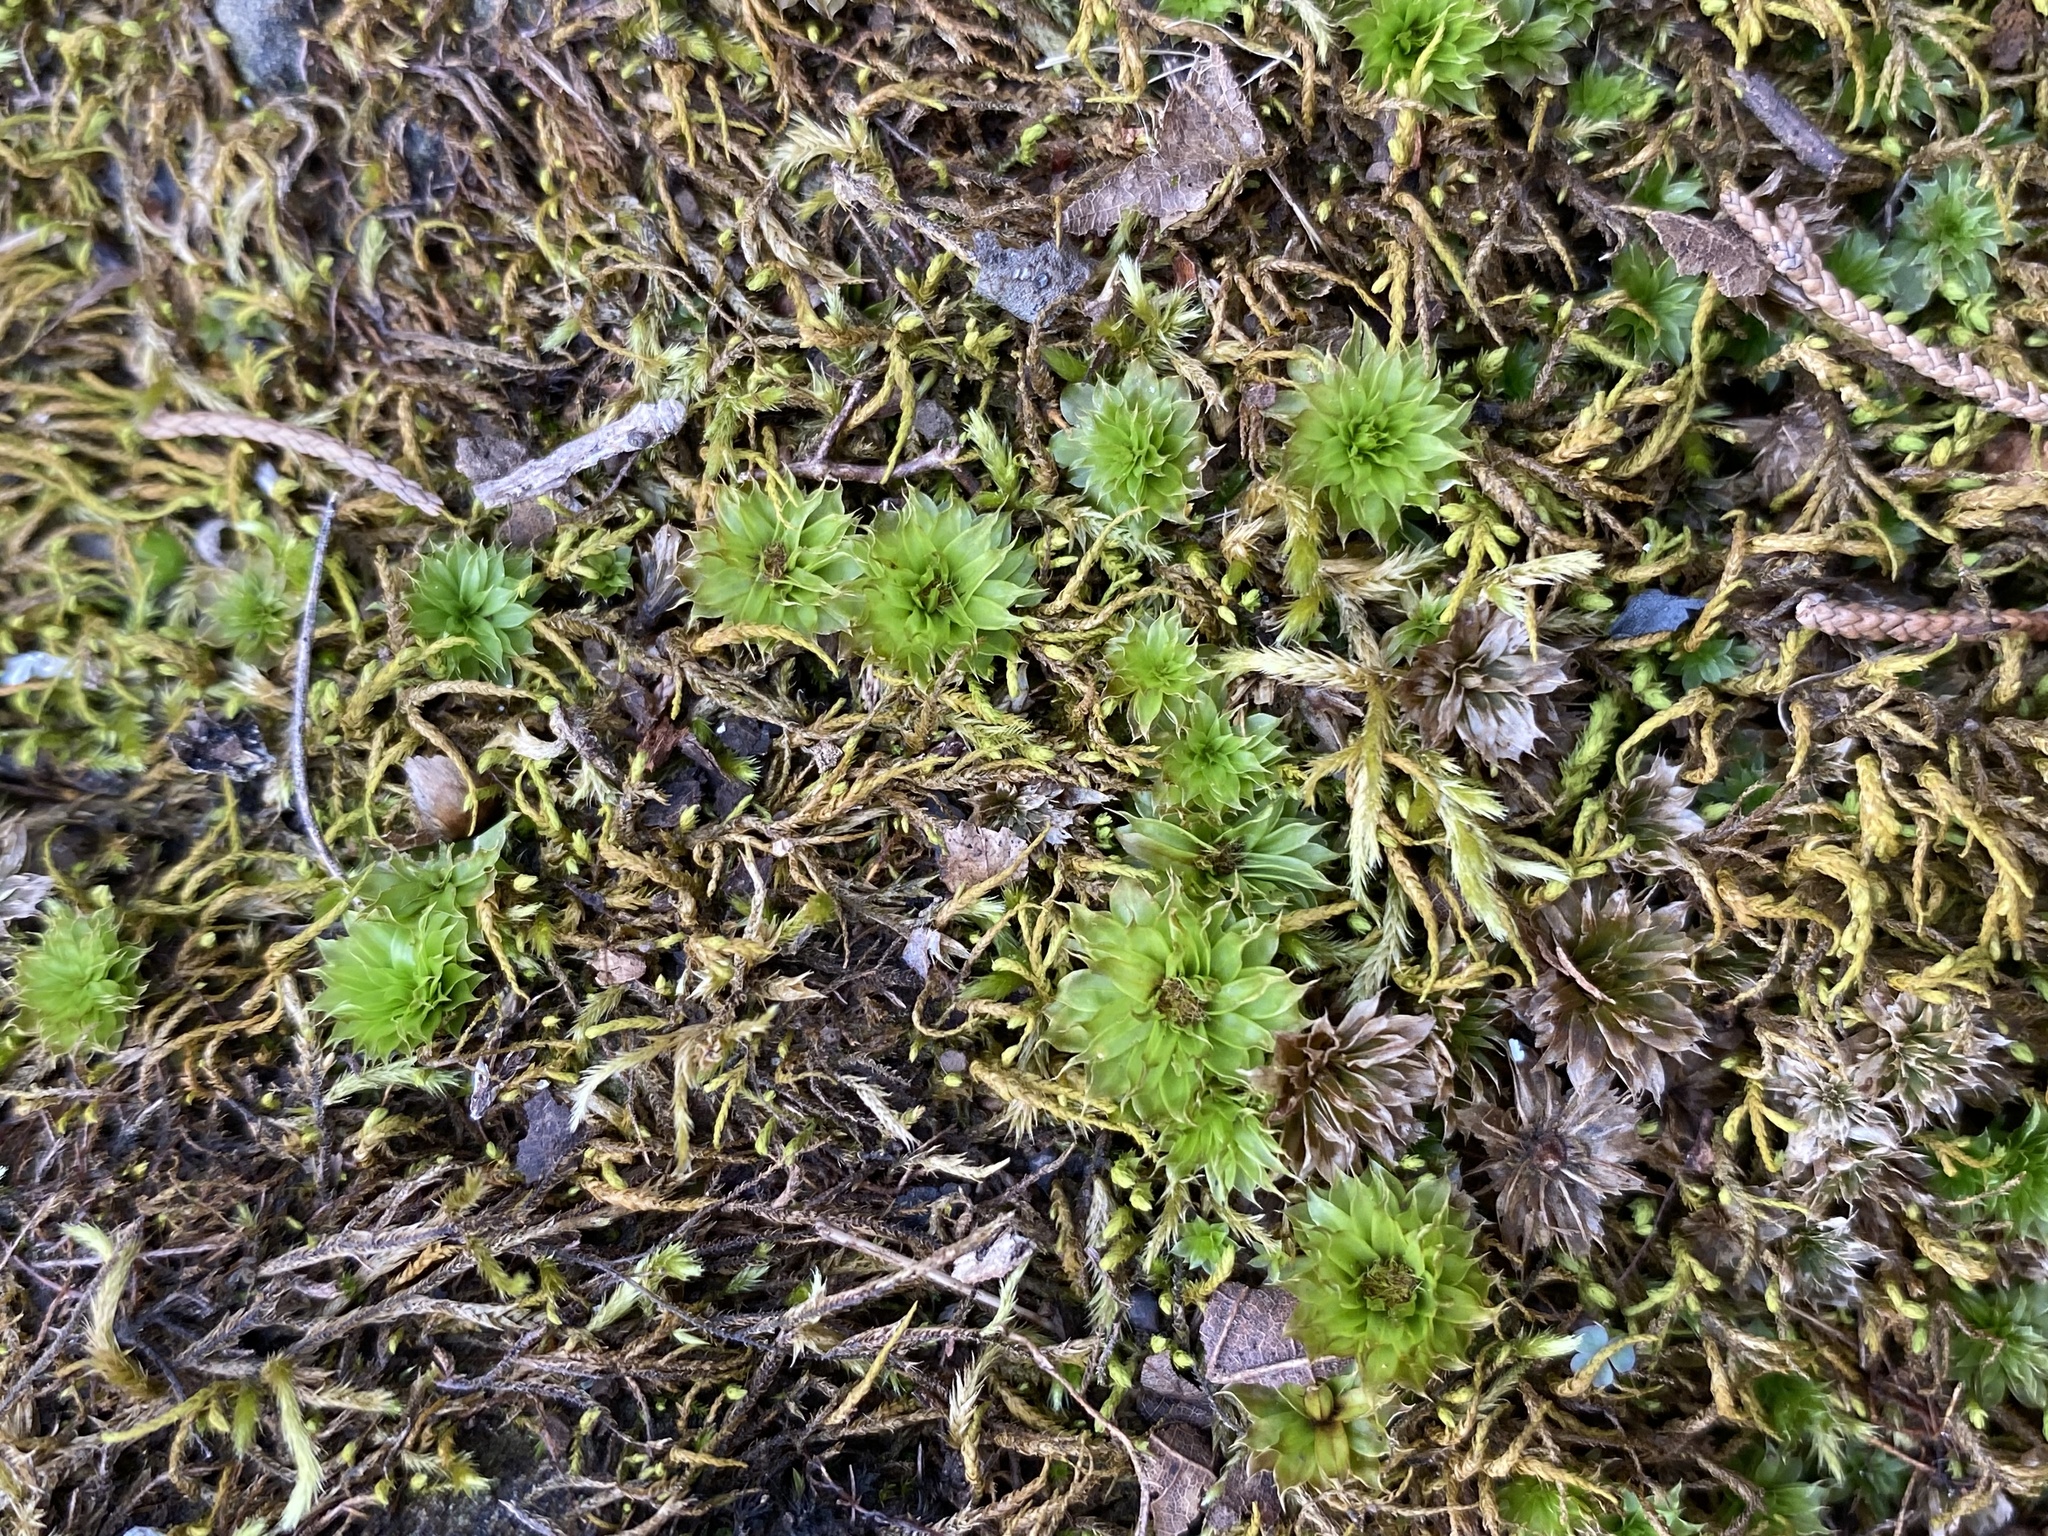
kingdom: Plantae
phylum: Bryophyta
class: Bryopsida
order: Bryales
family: Bryaceae
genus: Rhodobryum
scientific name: Rhodobryum ontariense
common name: Ontario rhodobryum moss
